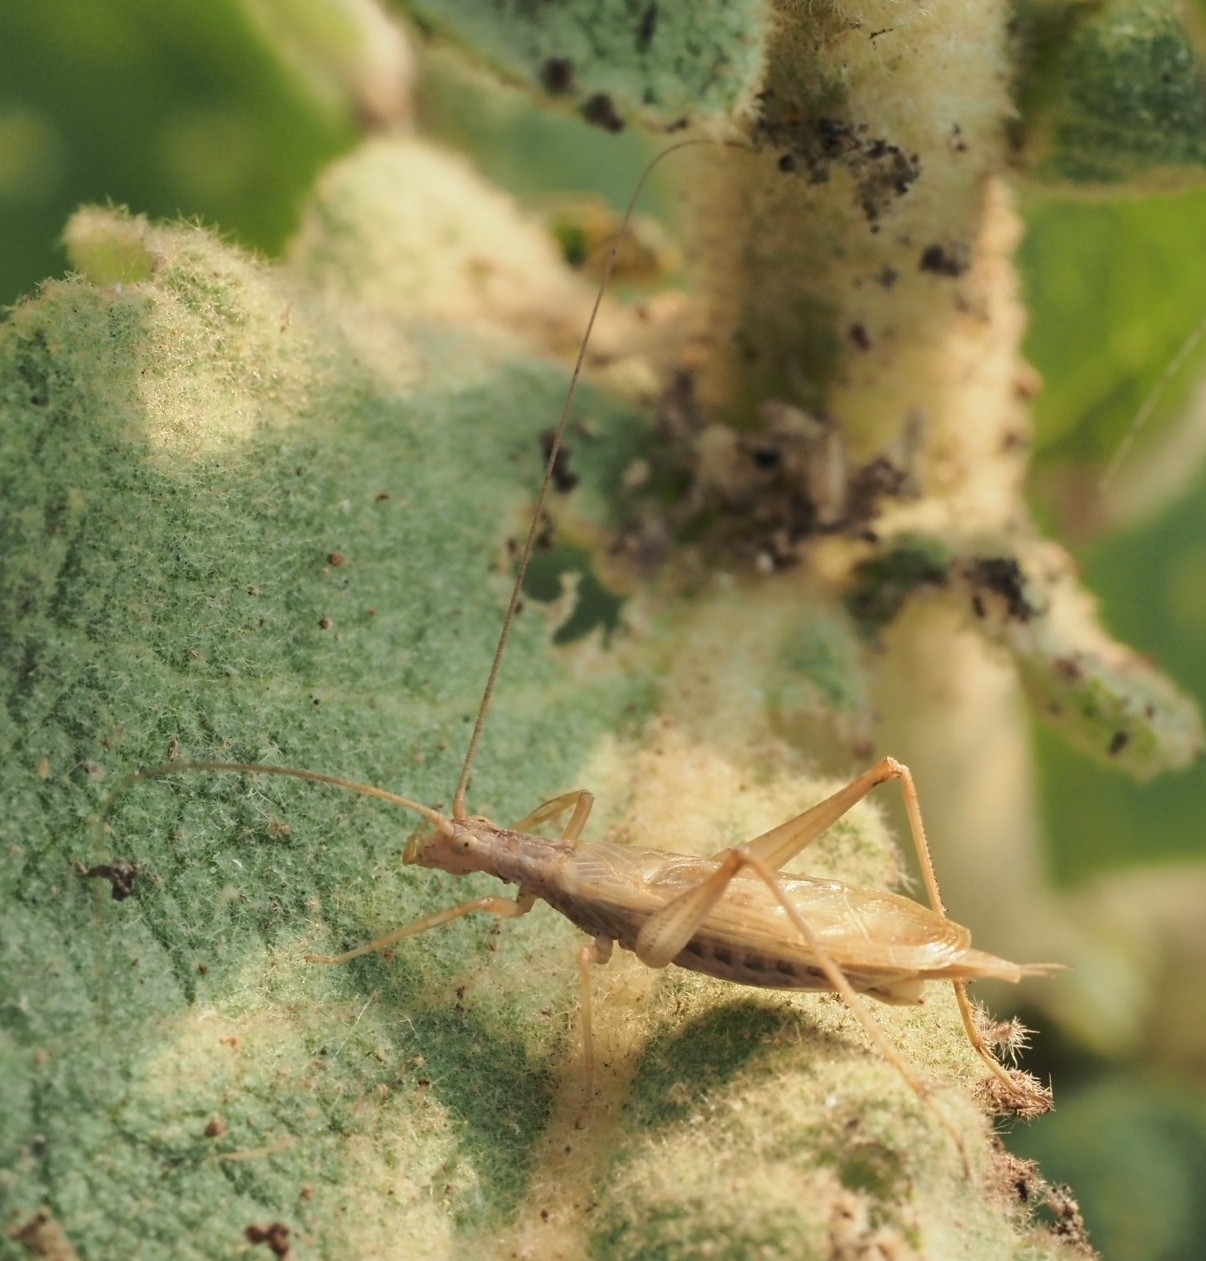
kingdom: Animalia
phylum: Arthropoda
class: Insecta
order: Orthoptera
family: Gryllidae
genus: Oecanthus
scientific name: Oecanthus pellucens
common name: Tree-cricket
